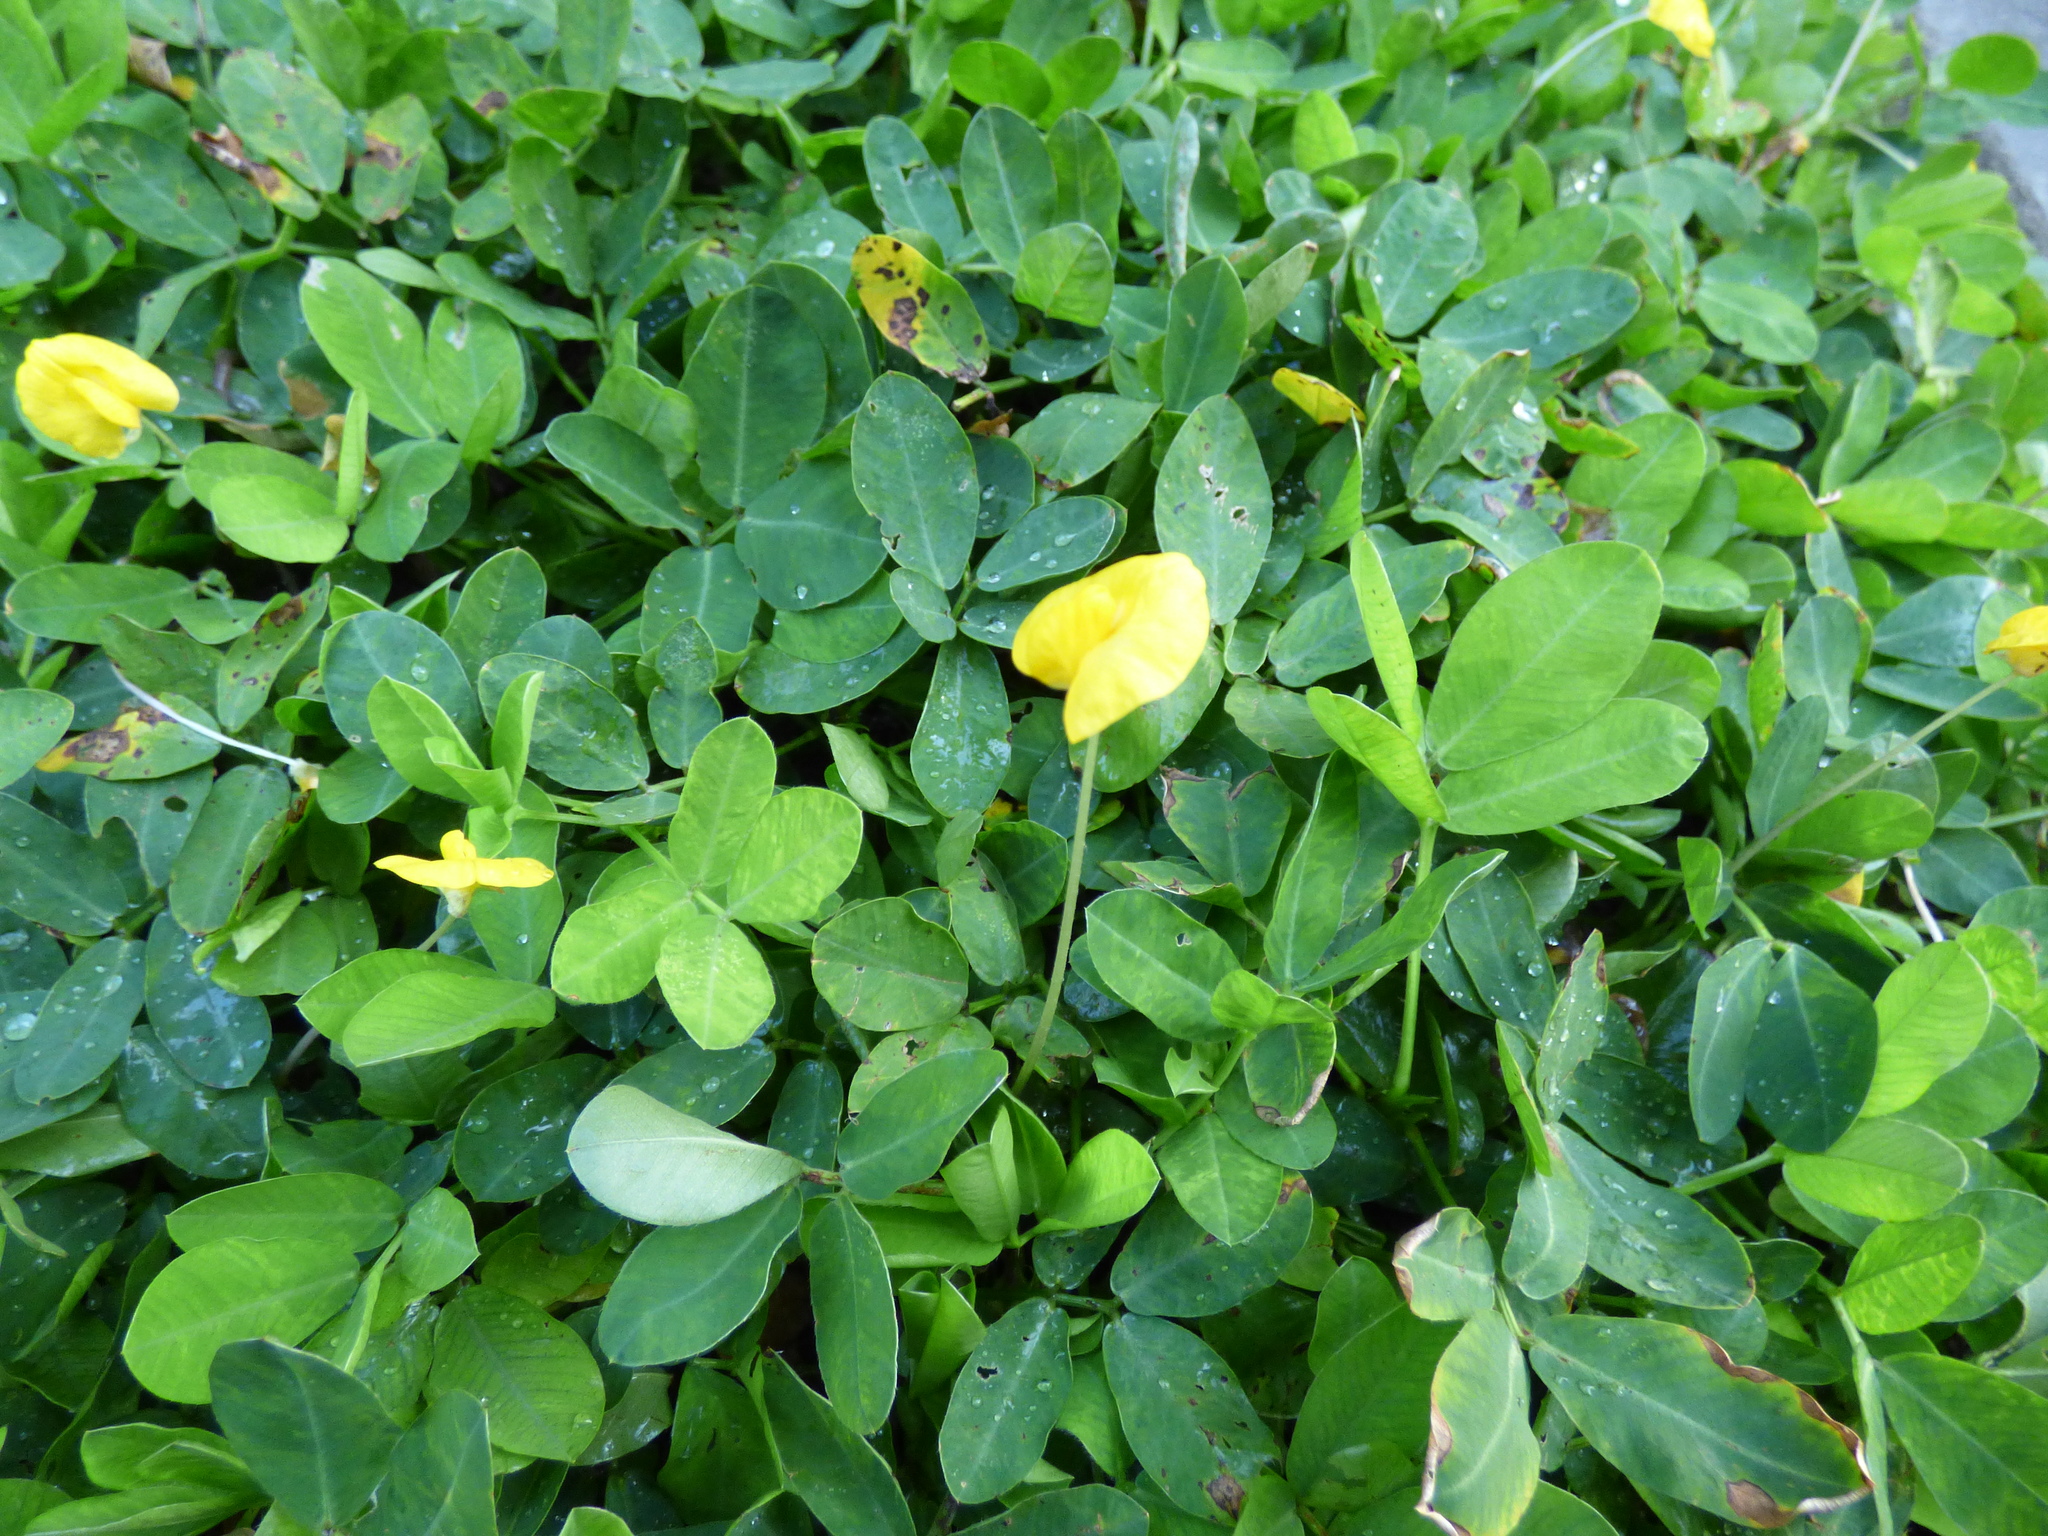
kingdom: Plantae
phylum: Tracheophyta
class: Magnoliopsida
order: Fabales
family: Fabaceae
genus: Arachis
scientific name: Arachis pintoi
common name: Pinto peanut
